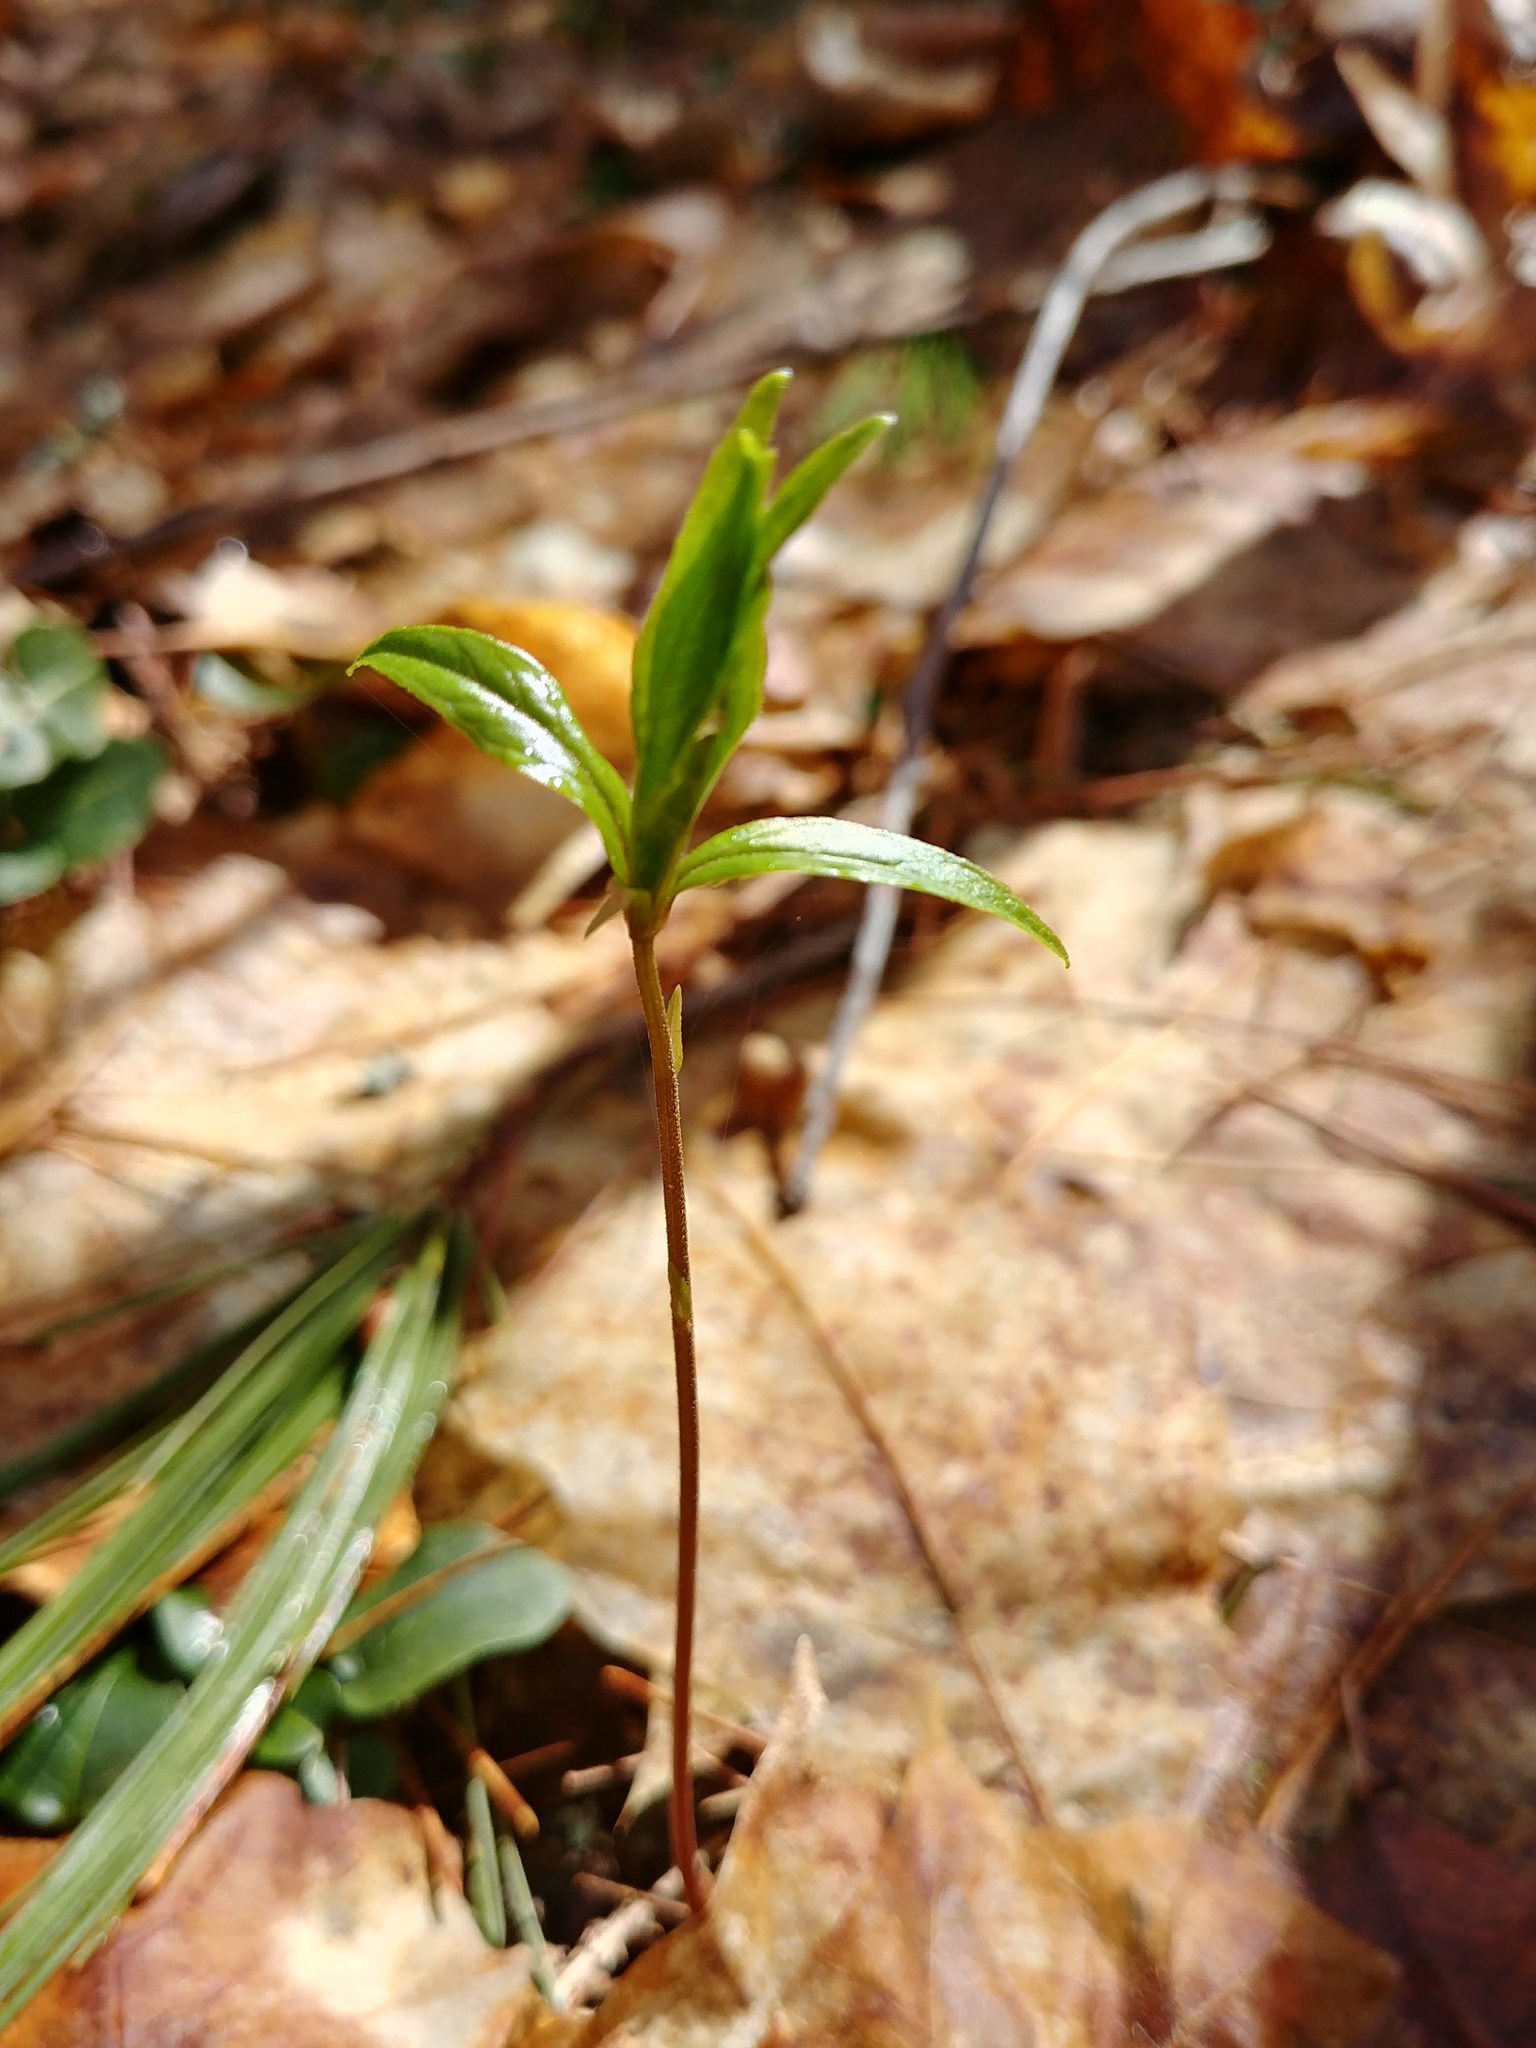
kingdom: Plantae
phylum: Tracheophyta
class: Magnoliopsida
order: Ericales
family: Primulaceae
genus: Lysimachia
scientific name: Lysimachia borealis
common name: American starflower
